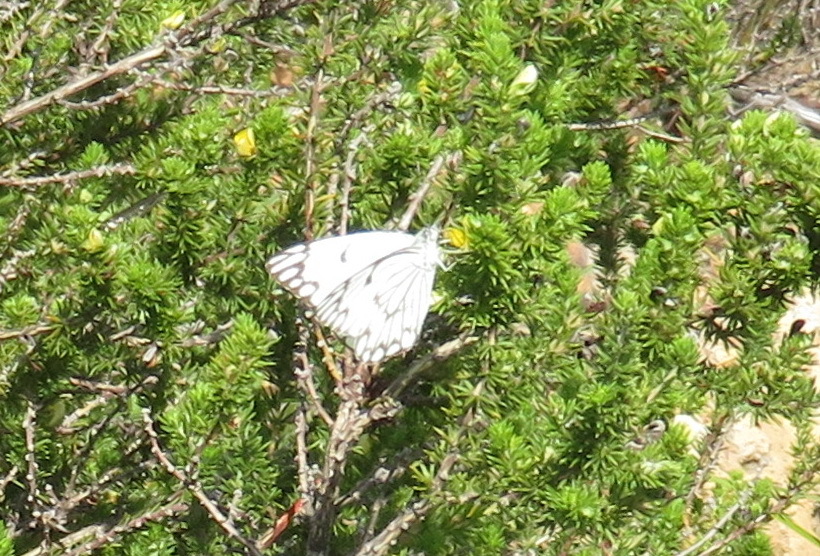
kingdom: Animalia
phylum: Arthropoda
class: Insecta
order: Lepidoptera
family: Pieridae
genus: Belenois
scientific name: Belenois aurota
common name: Brown-veined white
